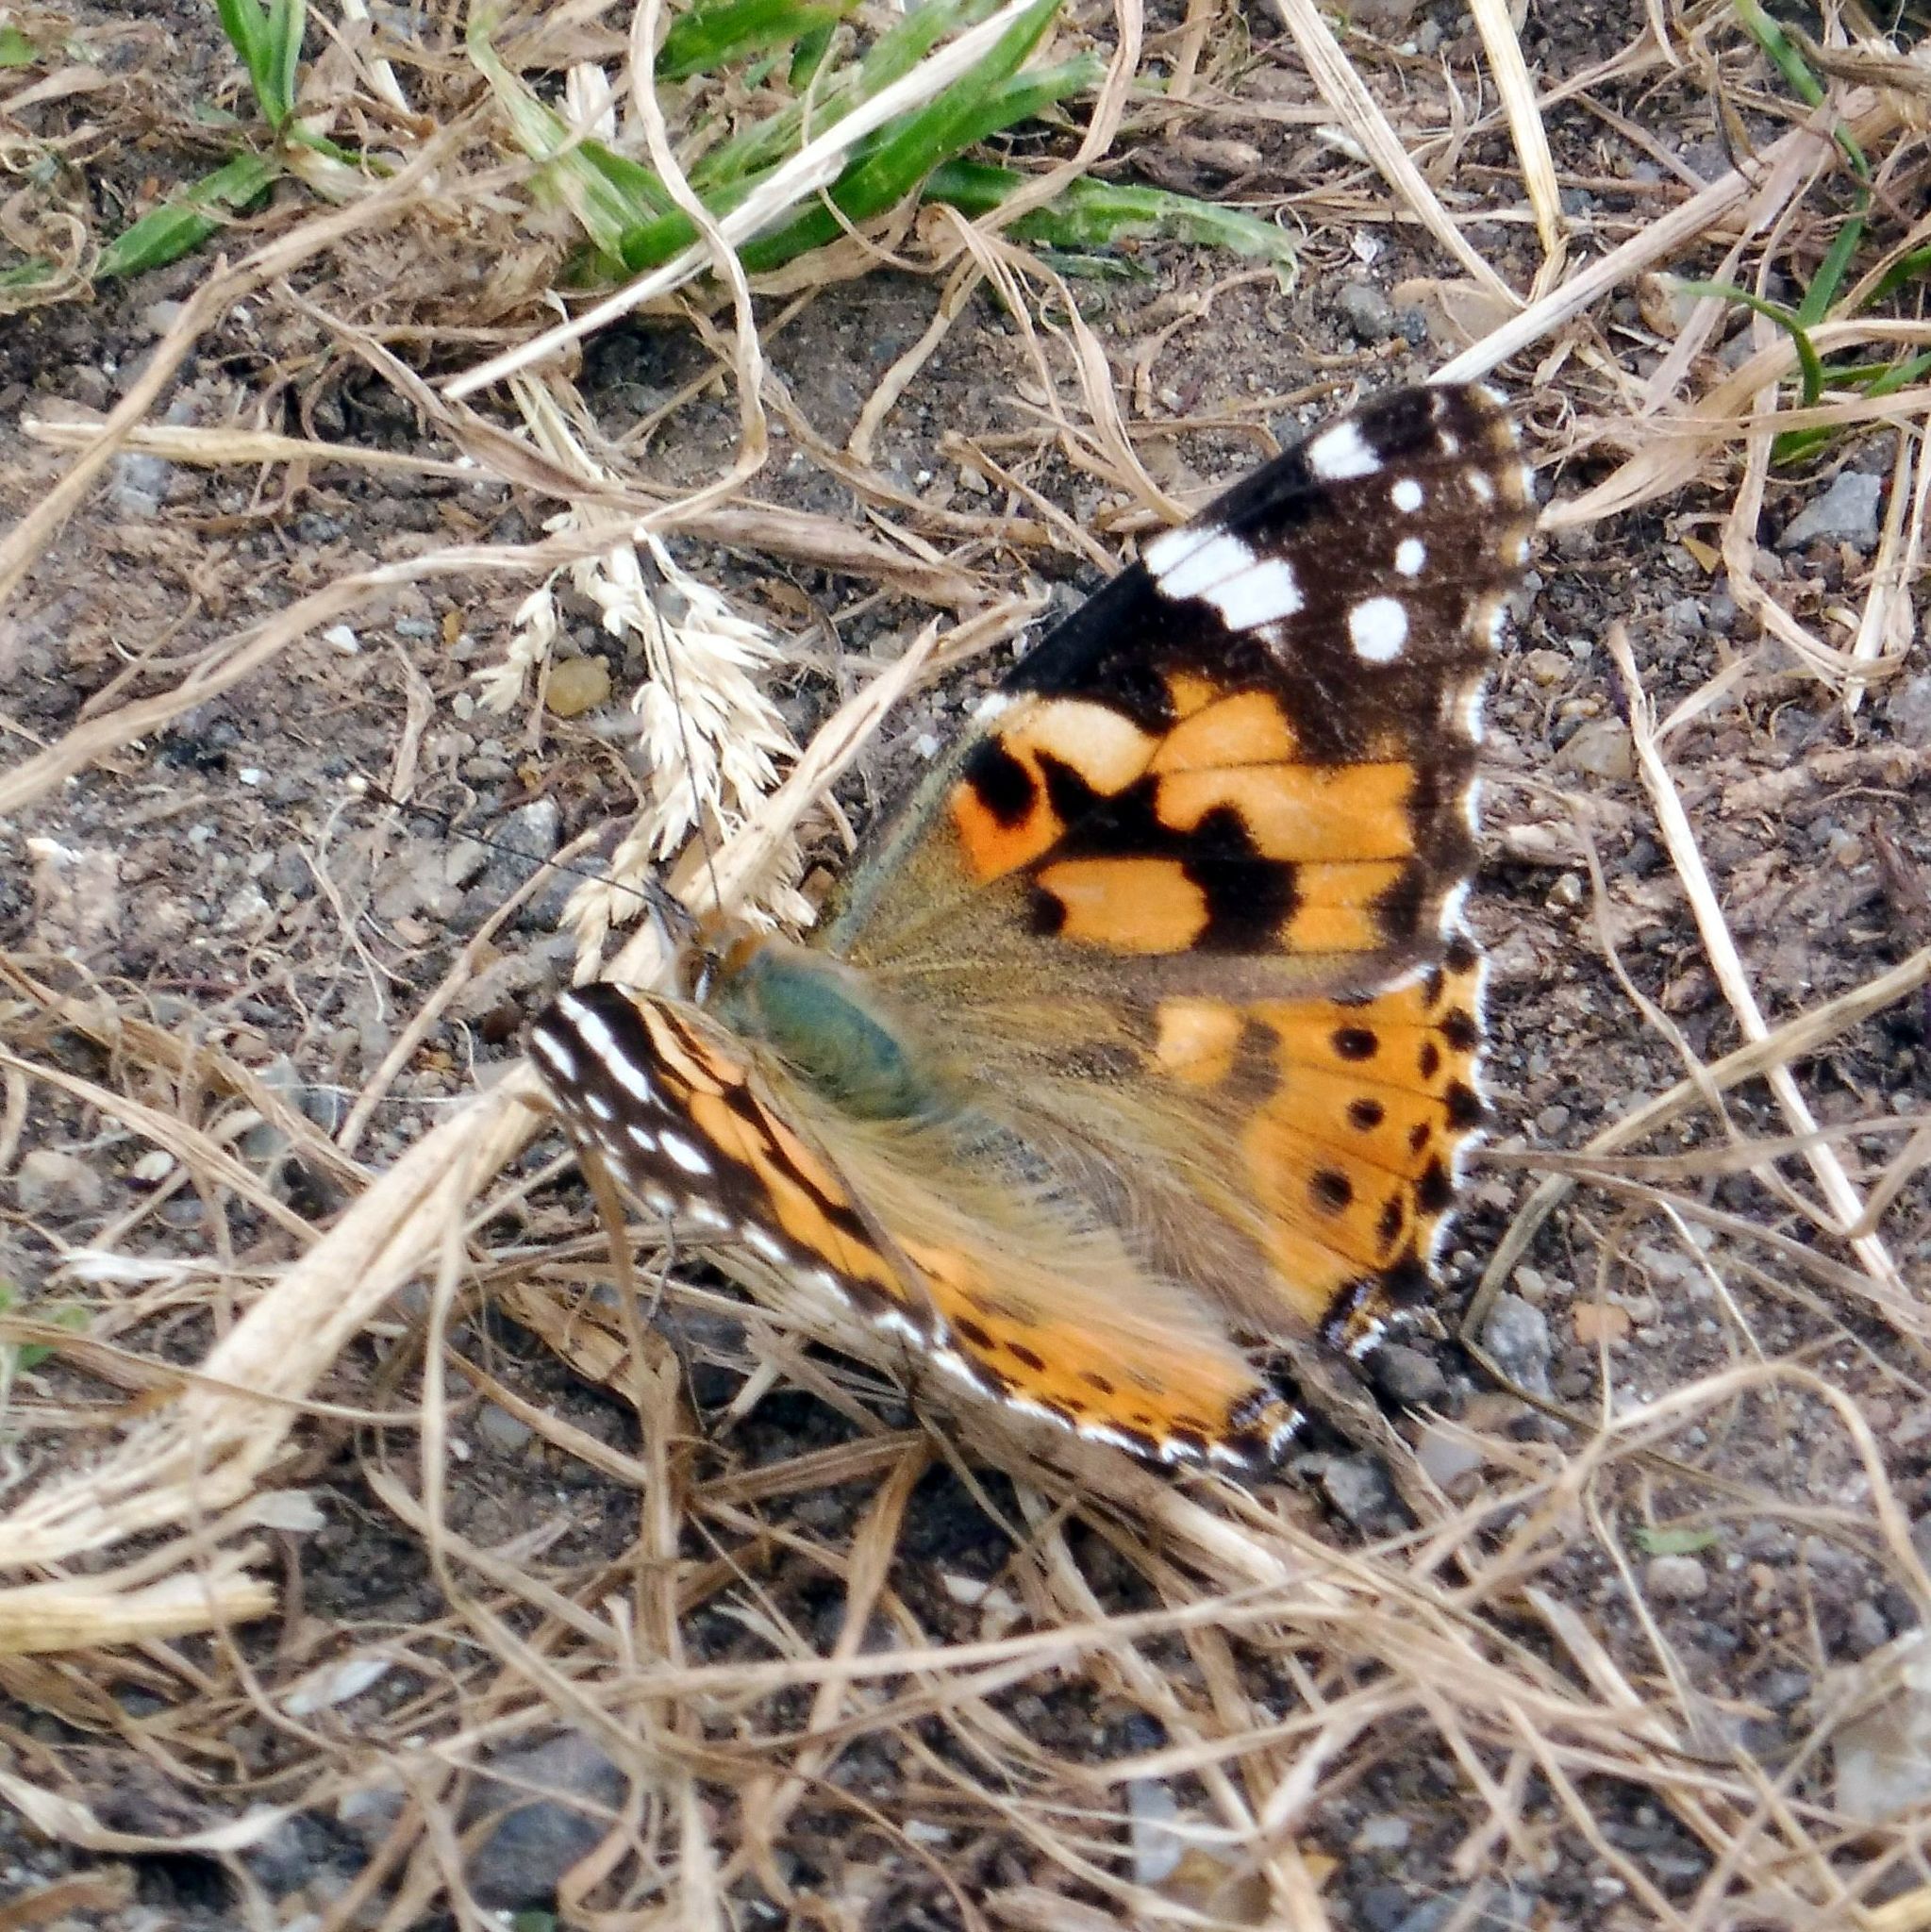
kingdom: Animalia
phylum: Arthropoda
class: Insecta
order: Lepidoptera
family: Nymphalidae
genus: Vanessa
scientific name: Vanessa cardui
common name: Painted lady
